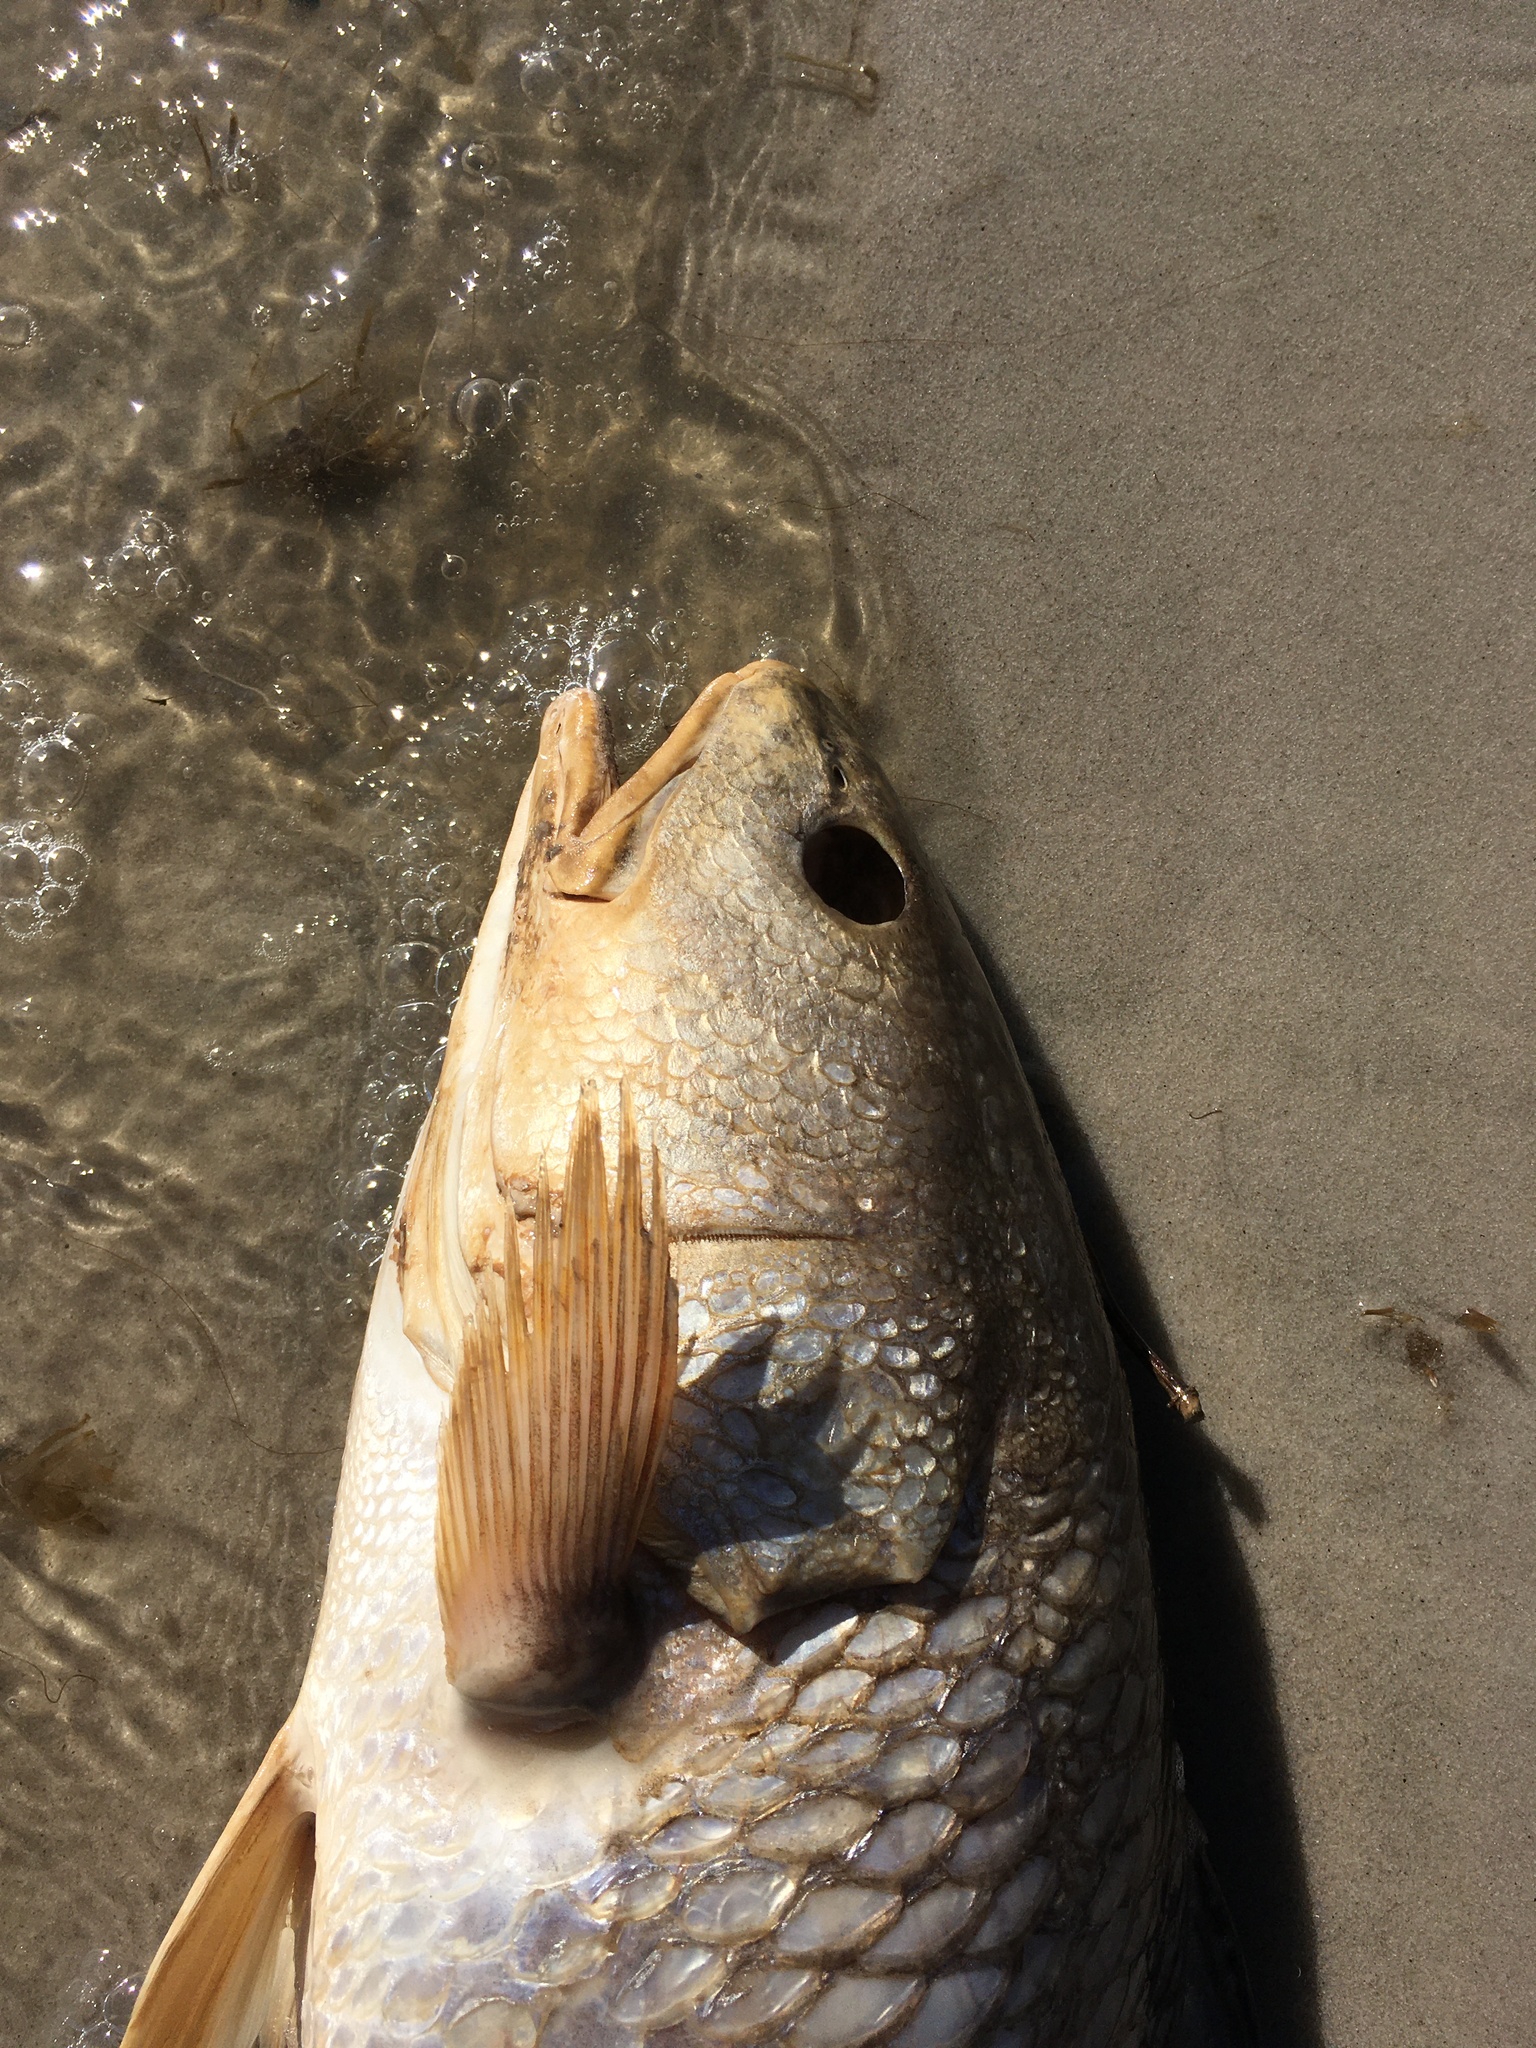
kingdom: Animalia
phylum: Chordata
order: Perciformes
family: Sciaenidae
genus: Sciaenops
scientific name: Sciaenops ocellatus
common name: Red drum
